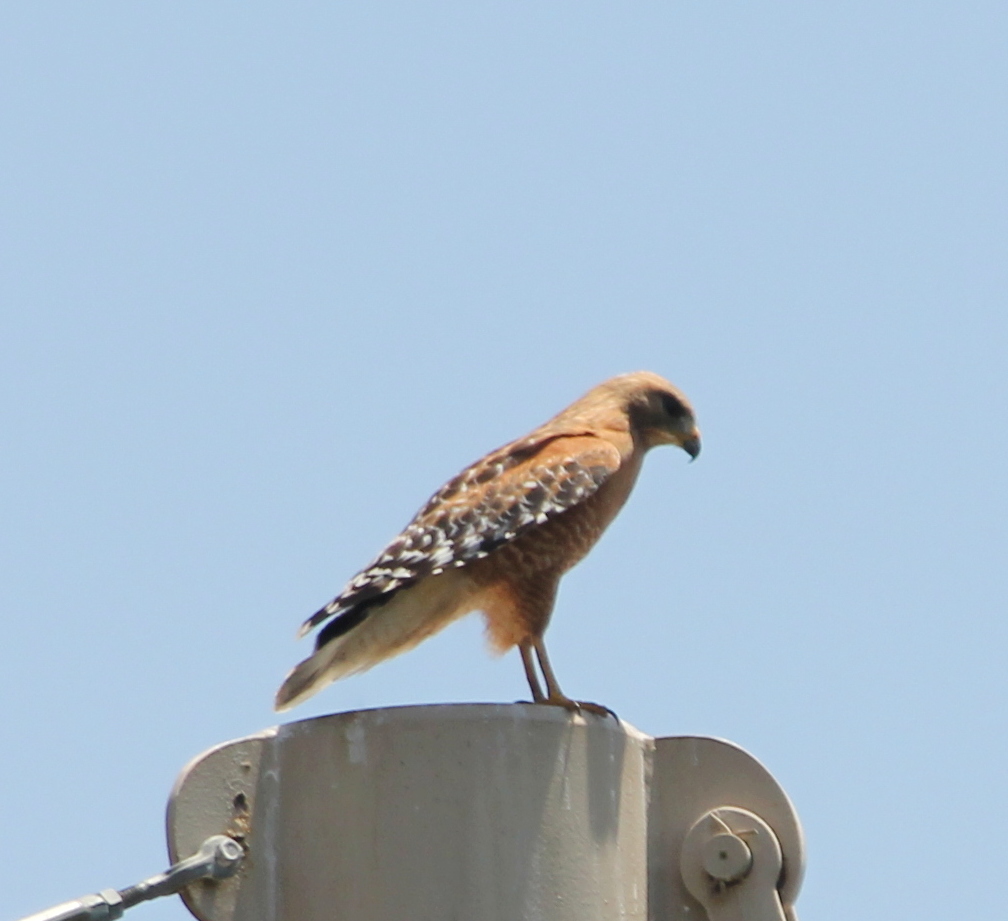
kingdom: Animalia
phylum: Chordata
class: Aves
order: Accipitriformes
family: Accipitridae
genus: Buteo
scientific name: Buteo lineatus
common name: Red-shouldered hawk
